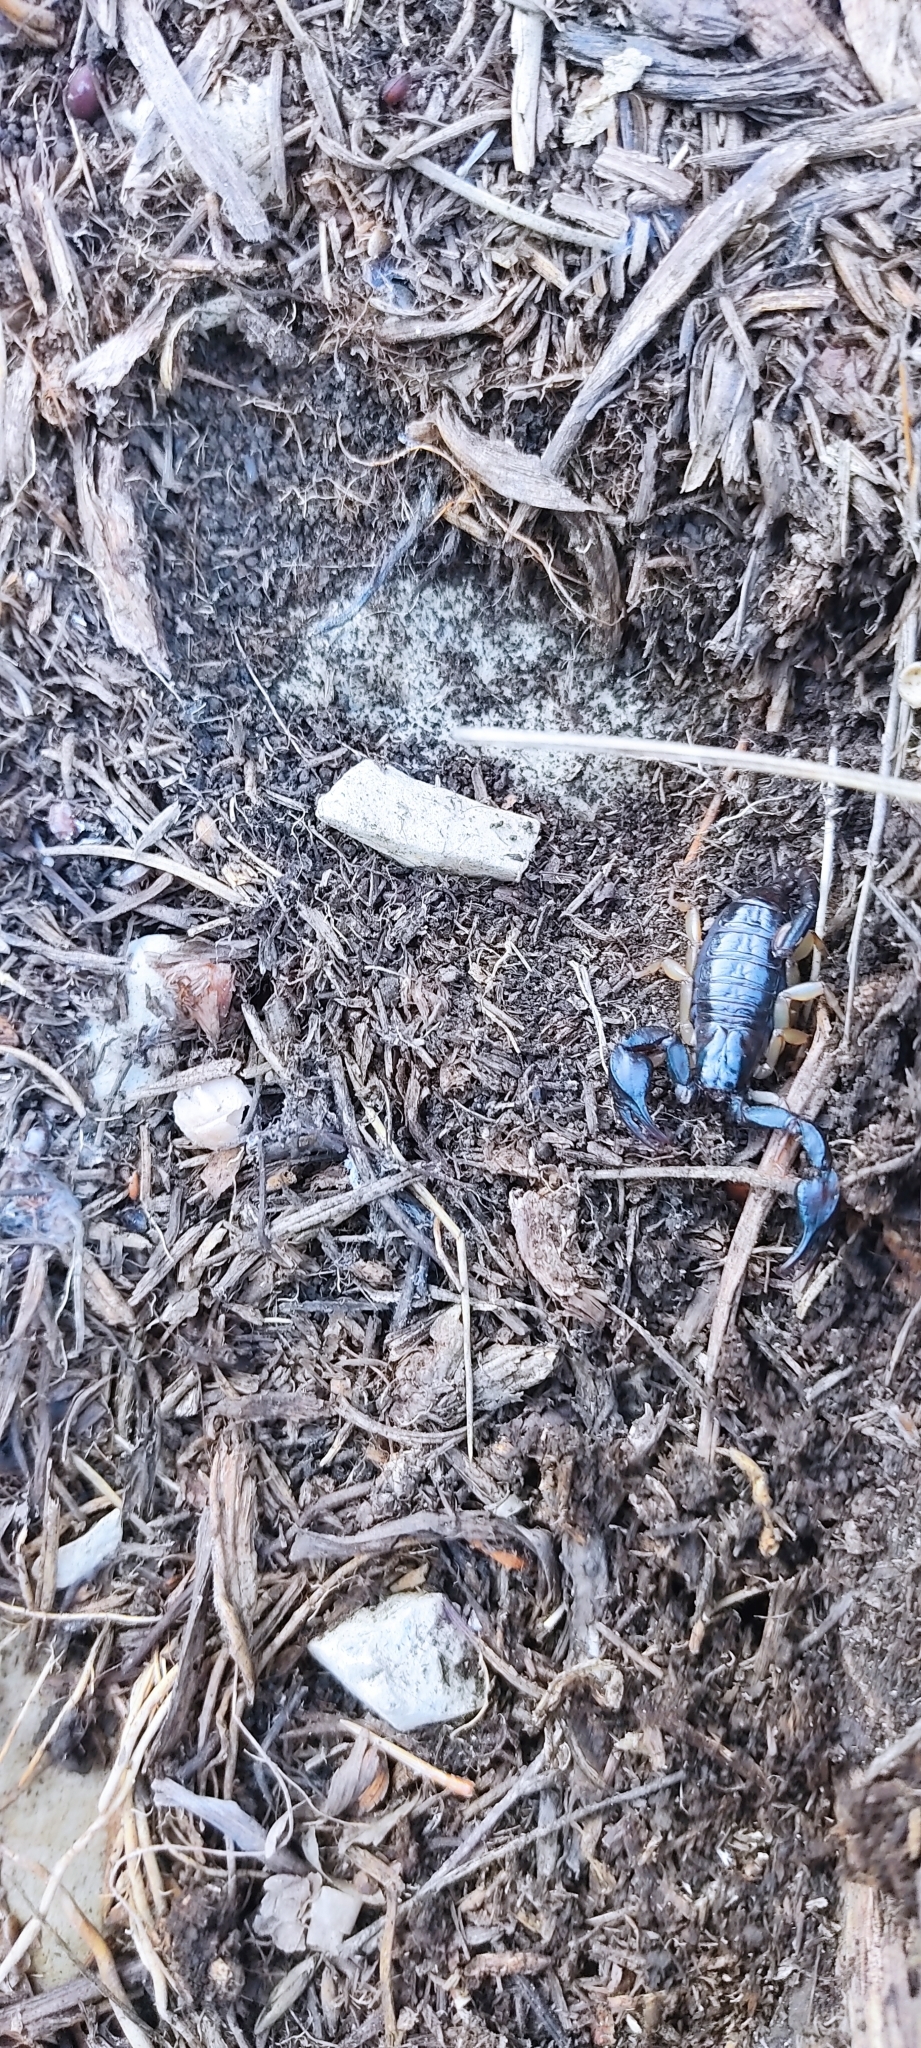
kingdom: Animalia
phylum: Arthropoda
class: Arachnida
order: Scorpiones
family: Euscorpiidae
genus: Euscorpius
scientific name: Euscorpius niciensis
